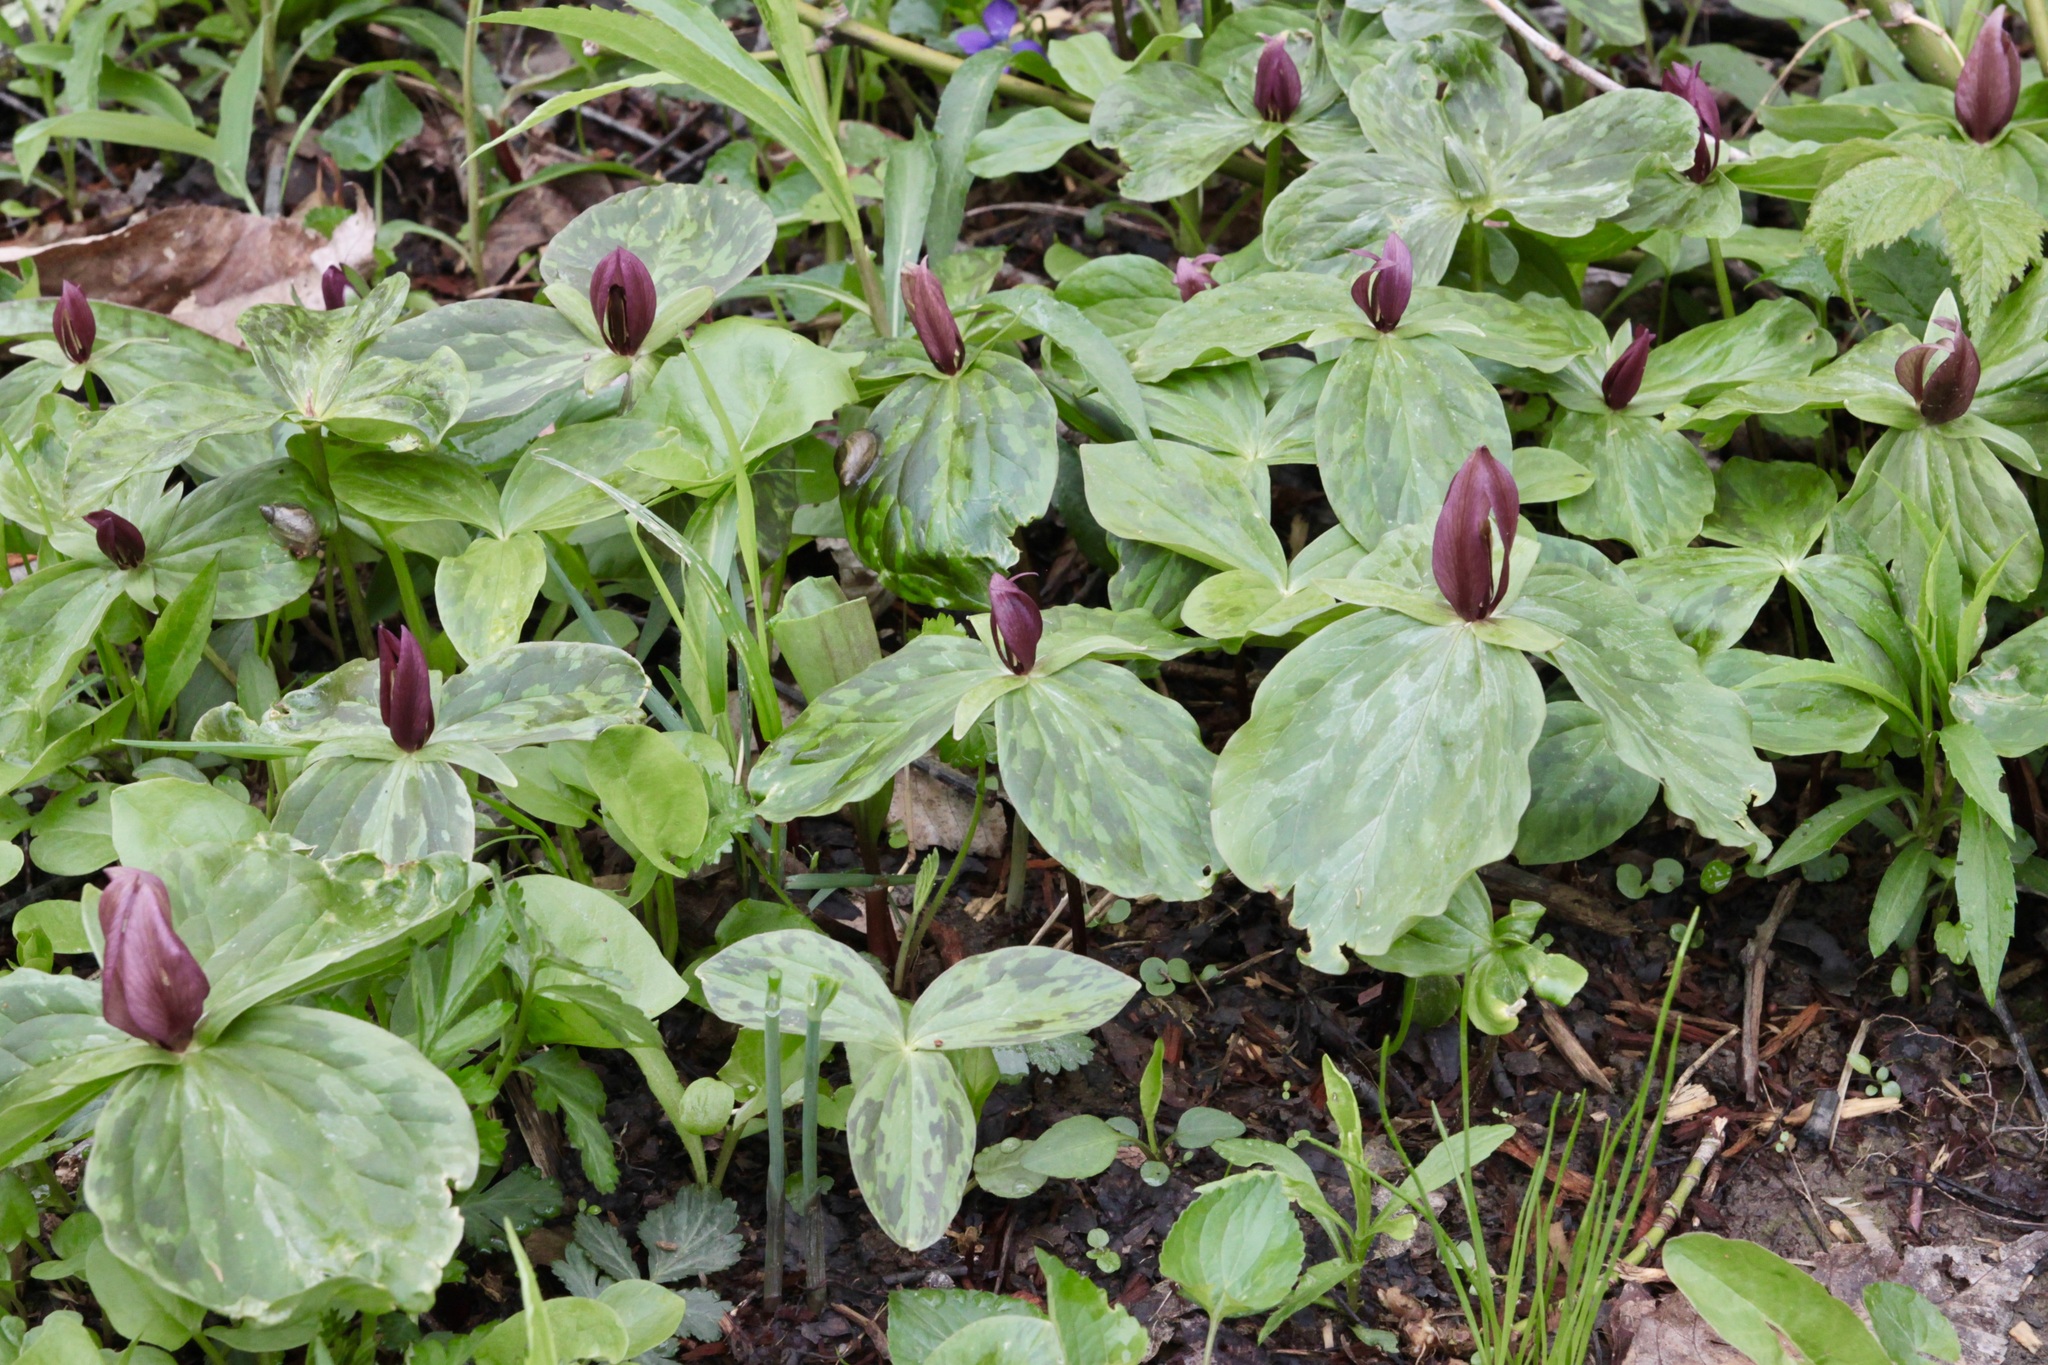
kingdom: Plantae
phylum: Tracheophyta
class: Liliopsida
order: Liliales
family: Melanthiaceae
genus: Trillium
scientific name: Trillium sessile
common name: Sessile trillium
